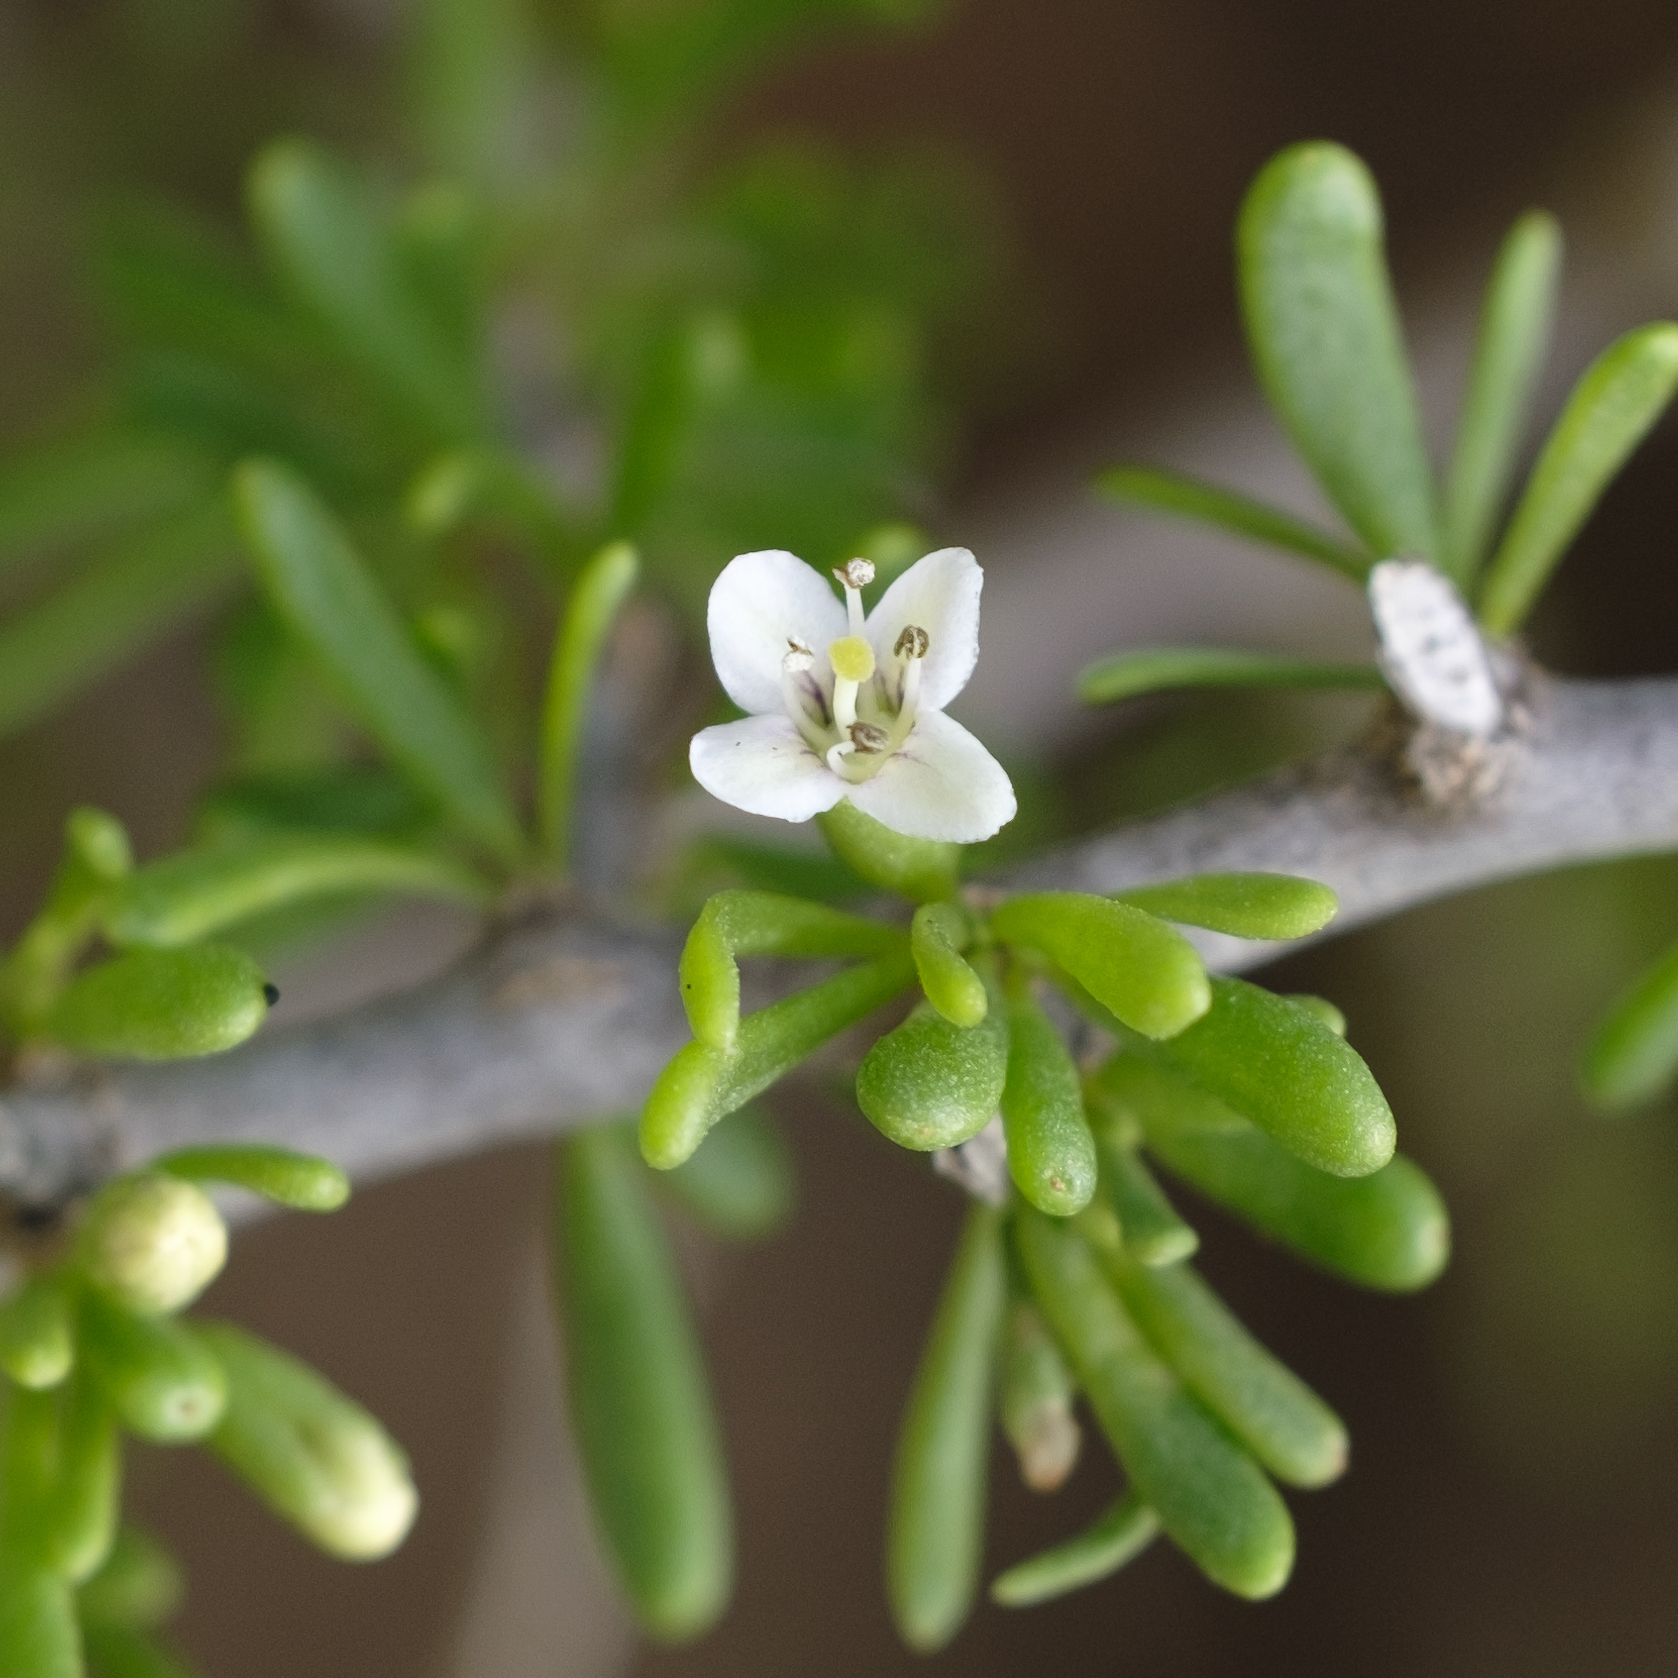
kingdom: Plantae
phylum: Tracheophyta
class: Magnoliopsida
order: Solanales
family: Solanaceae
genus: Lycium
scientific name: Lycium californicum
